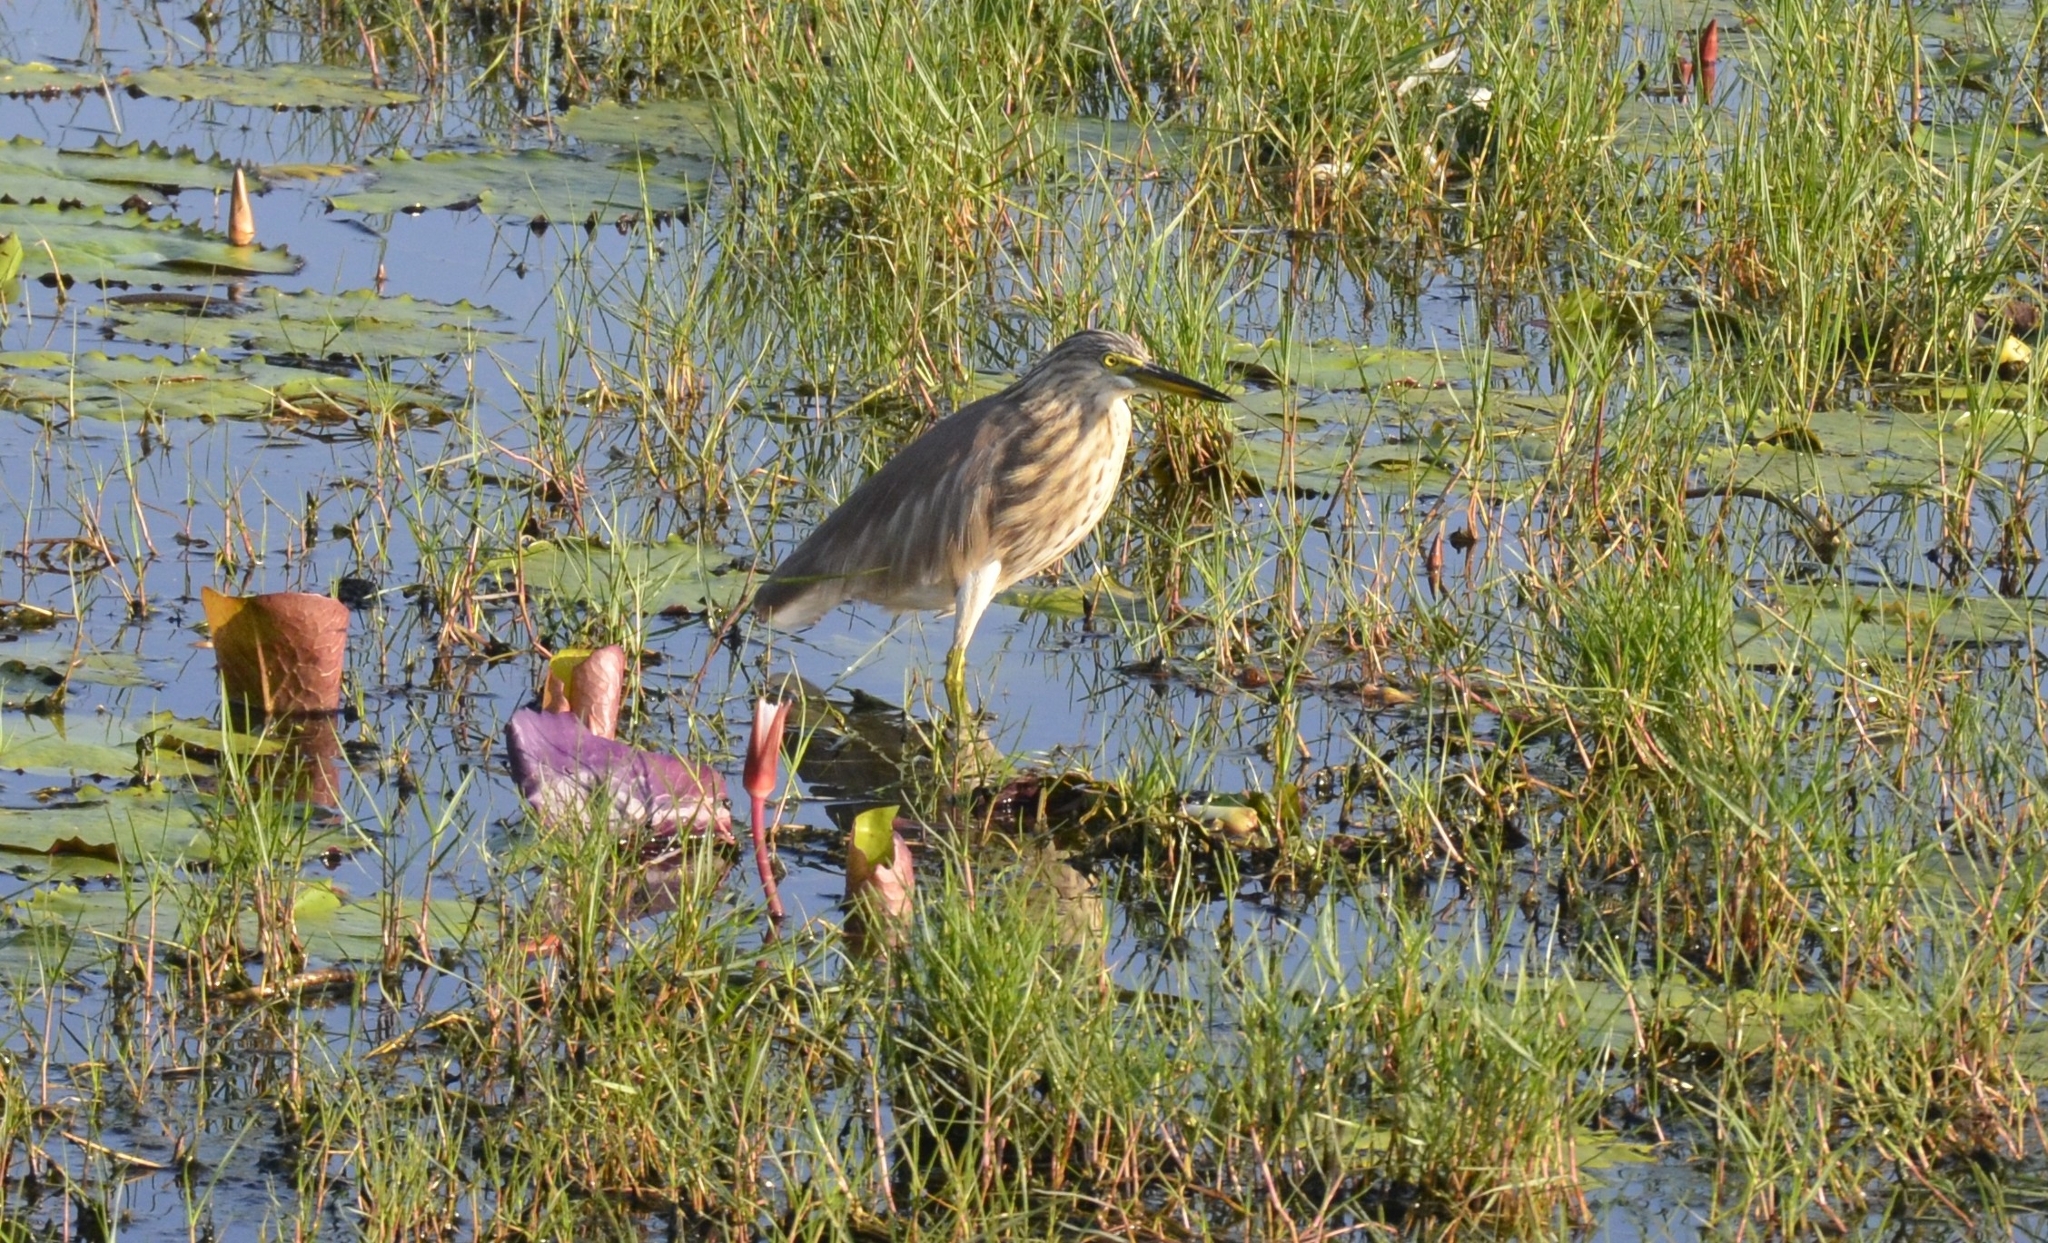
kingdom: Animalia
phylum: Chordata
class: Aves
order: Pelecaniformes
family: Ardeidae
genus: Ardeola
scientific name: Ardeola grayii
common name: Indian pond heron
